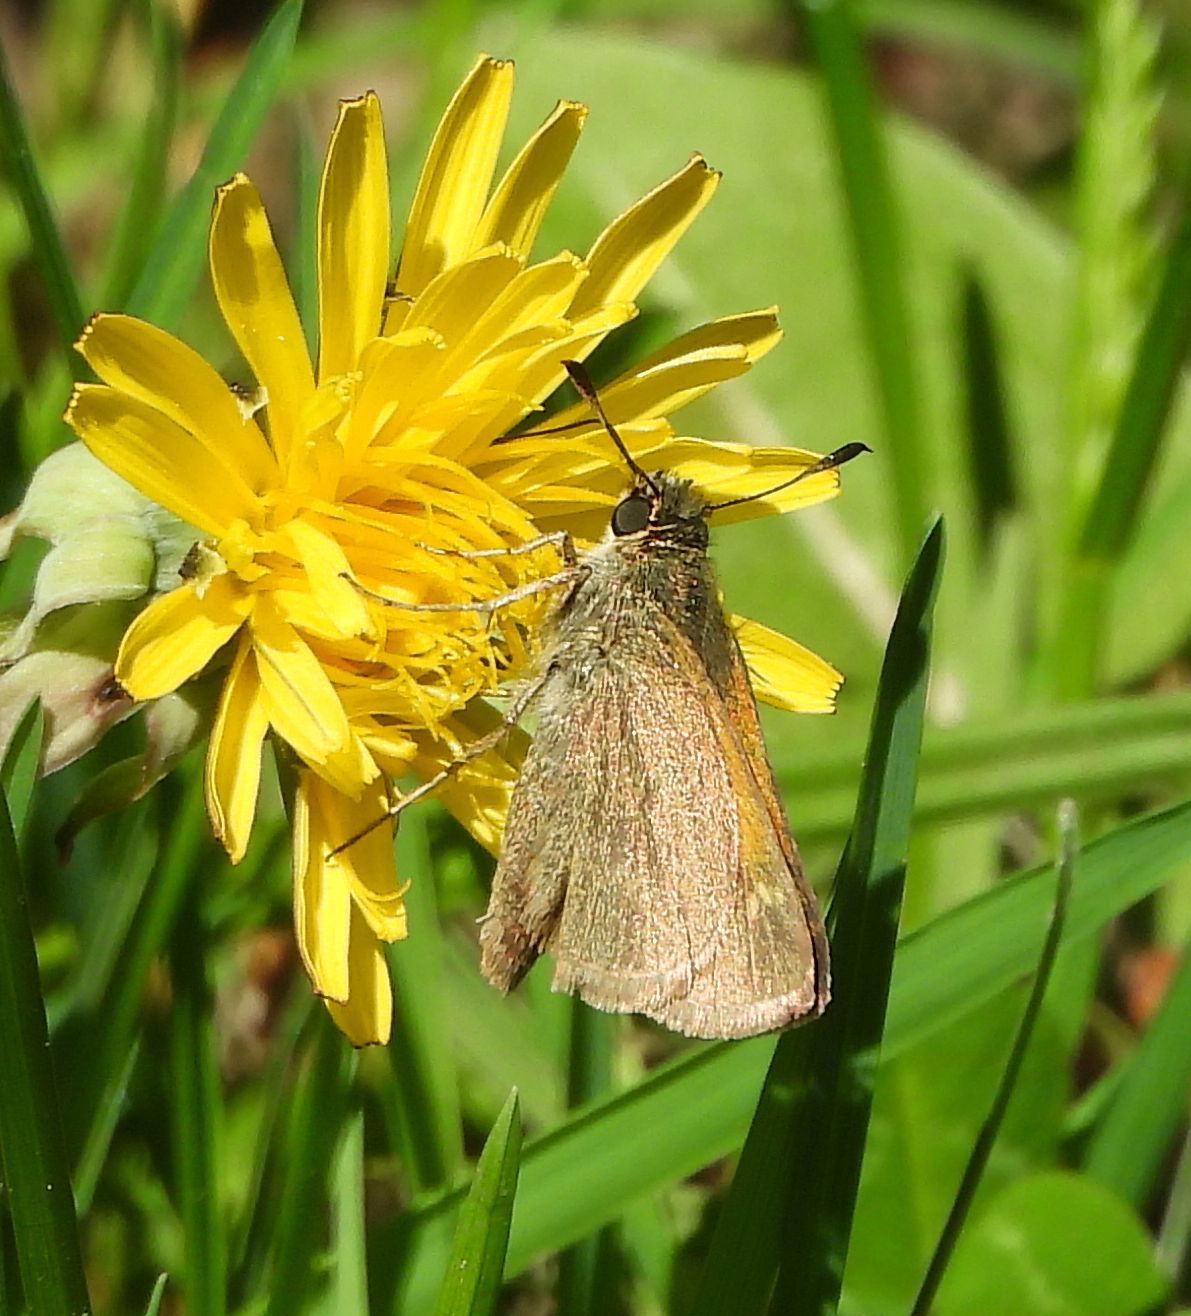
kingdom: Animalia
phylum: Arthropoda
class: Insecta
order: Lepidoptera
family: Hesperiidae
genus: Polites
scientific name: Polites themistocles
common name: Tawny-edged skipper
